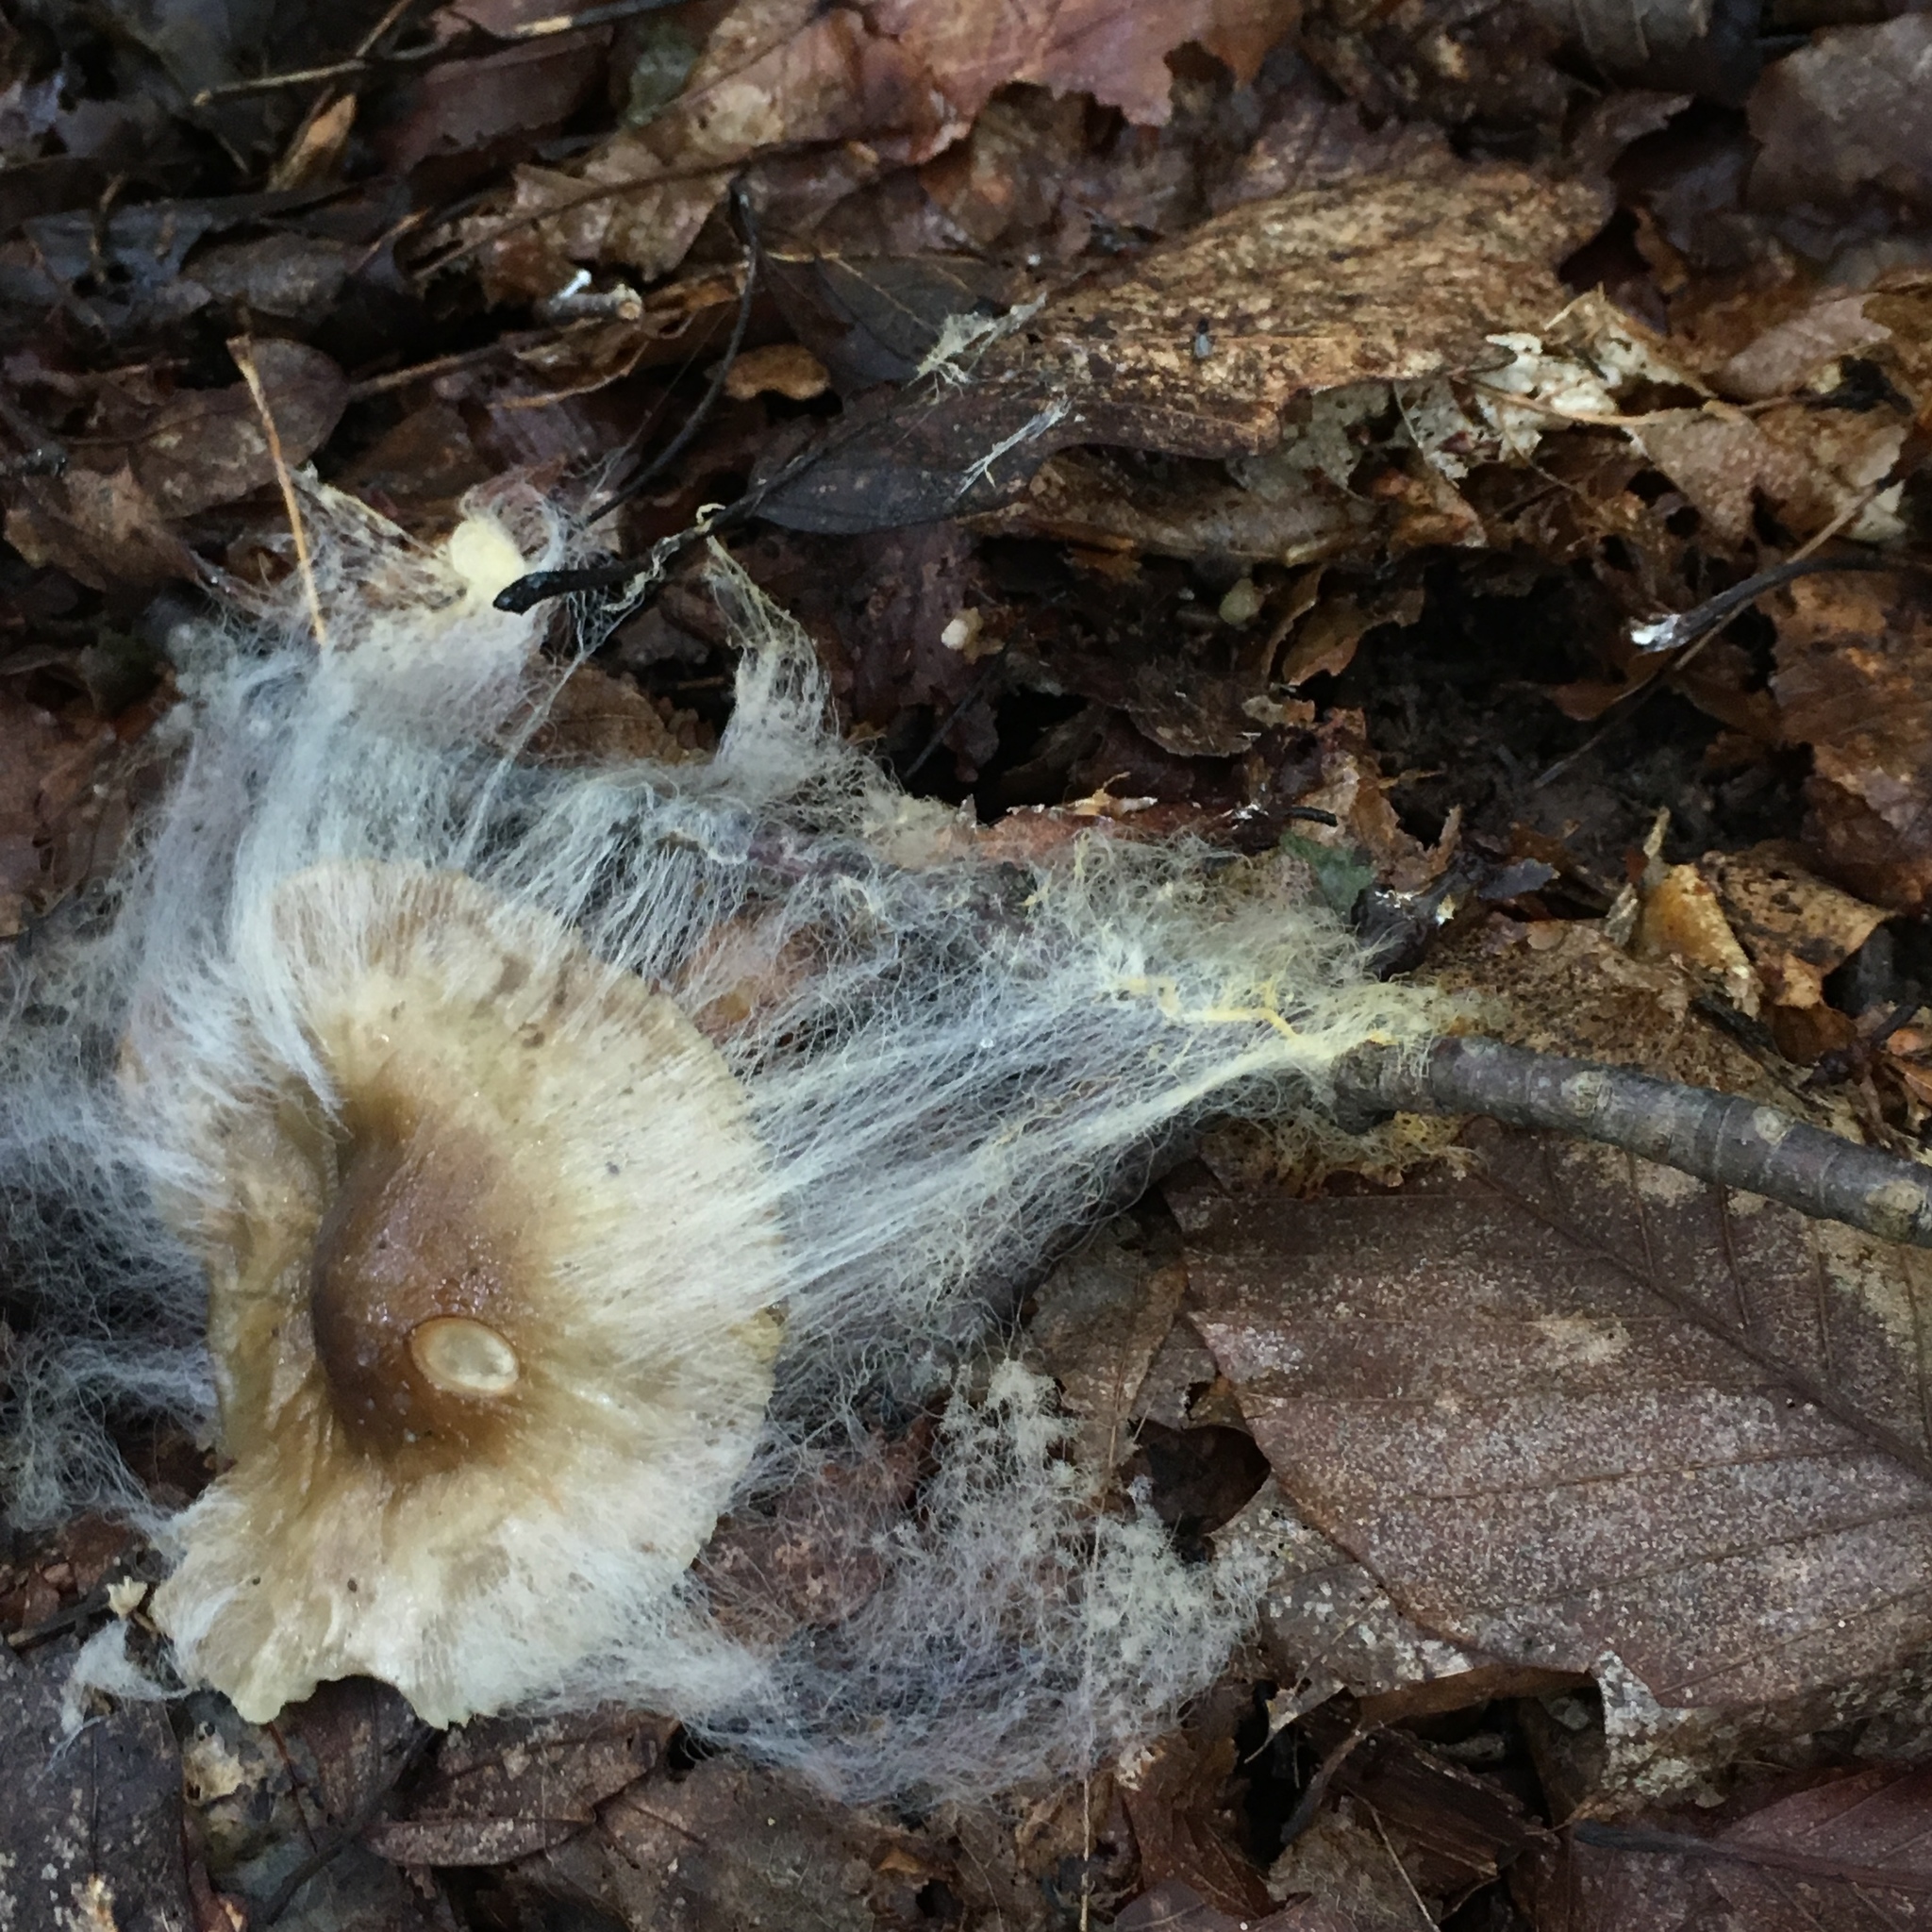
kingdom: Fungi
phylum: Mucoromycota
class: Mucoromycetes
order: Mucorales
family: Rhizopodaceae
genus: Syzygites
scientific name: Syzygites megalocarpus
